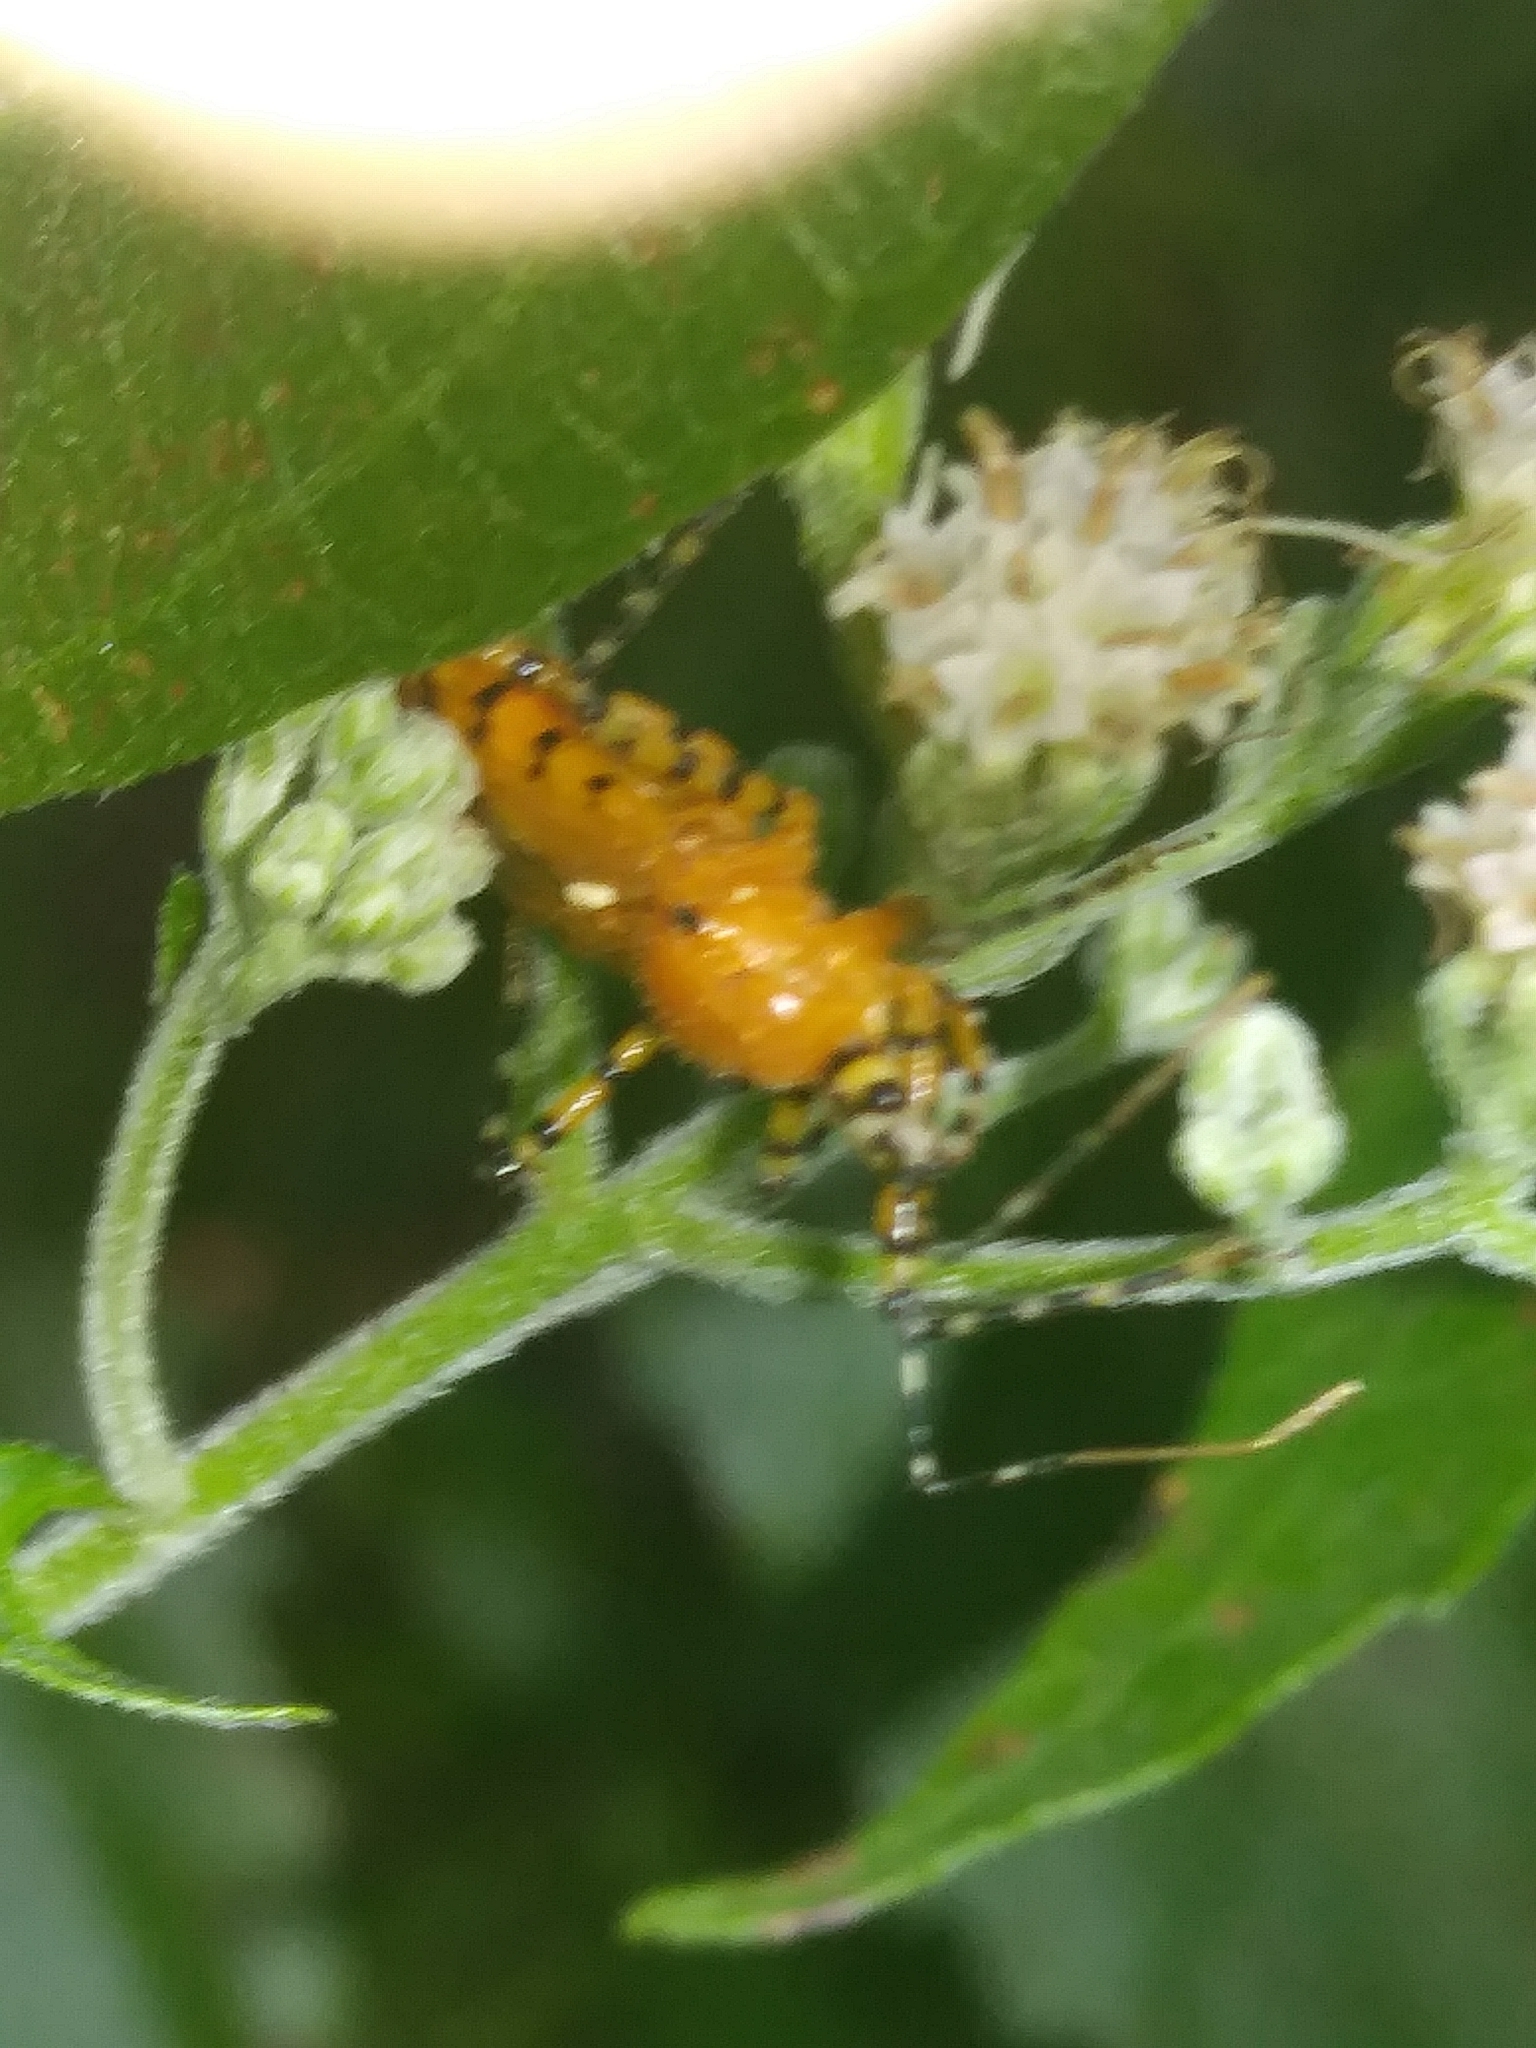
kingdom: Animalia
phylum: Arthropoda
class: Insecta
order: Hemiptera
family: Reduviidae
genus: Pselliopus
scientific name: Pselliopus barberi
